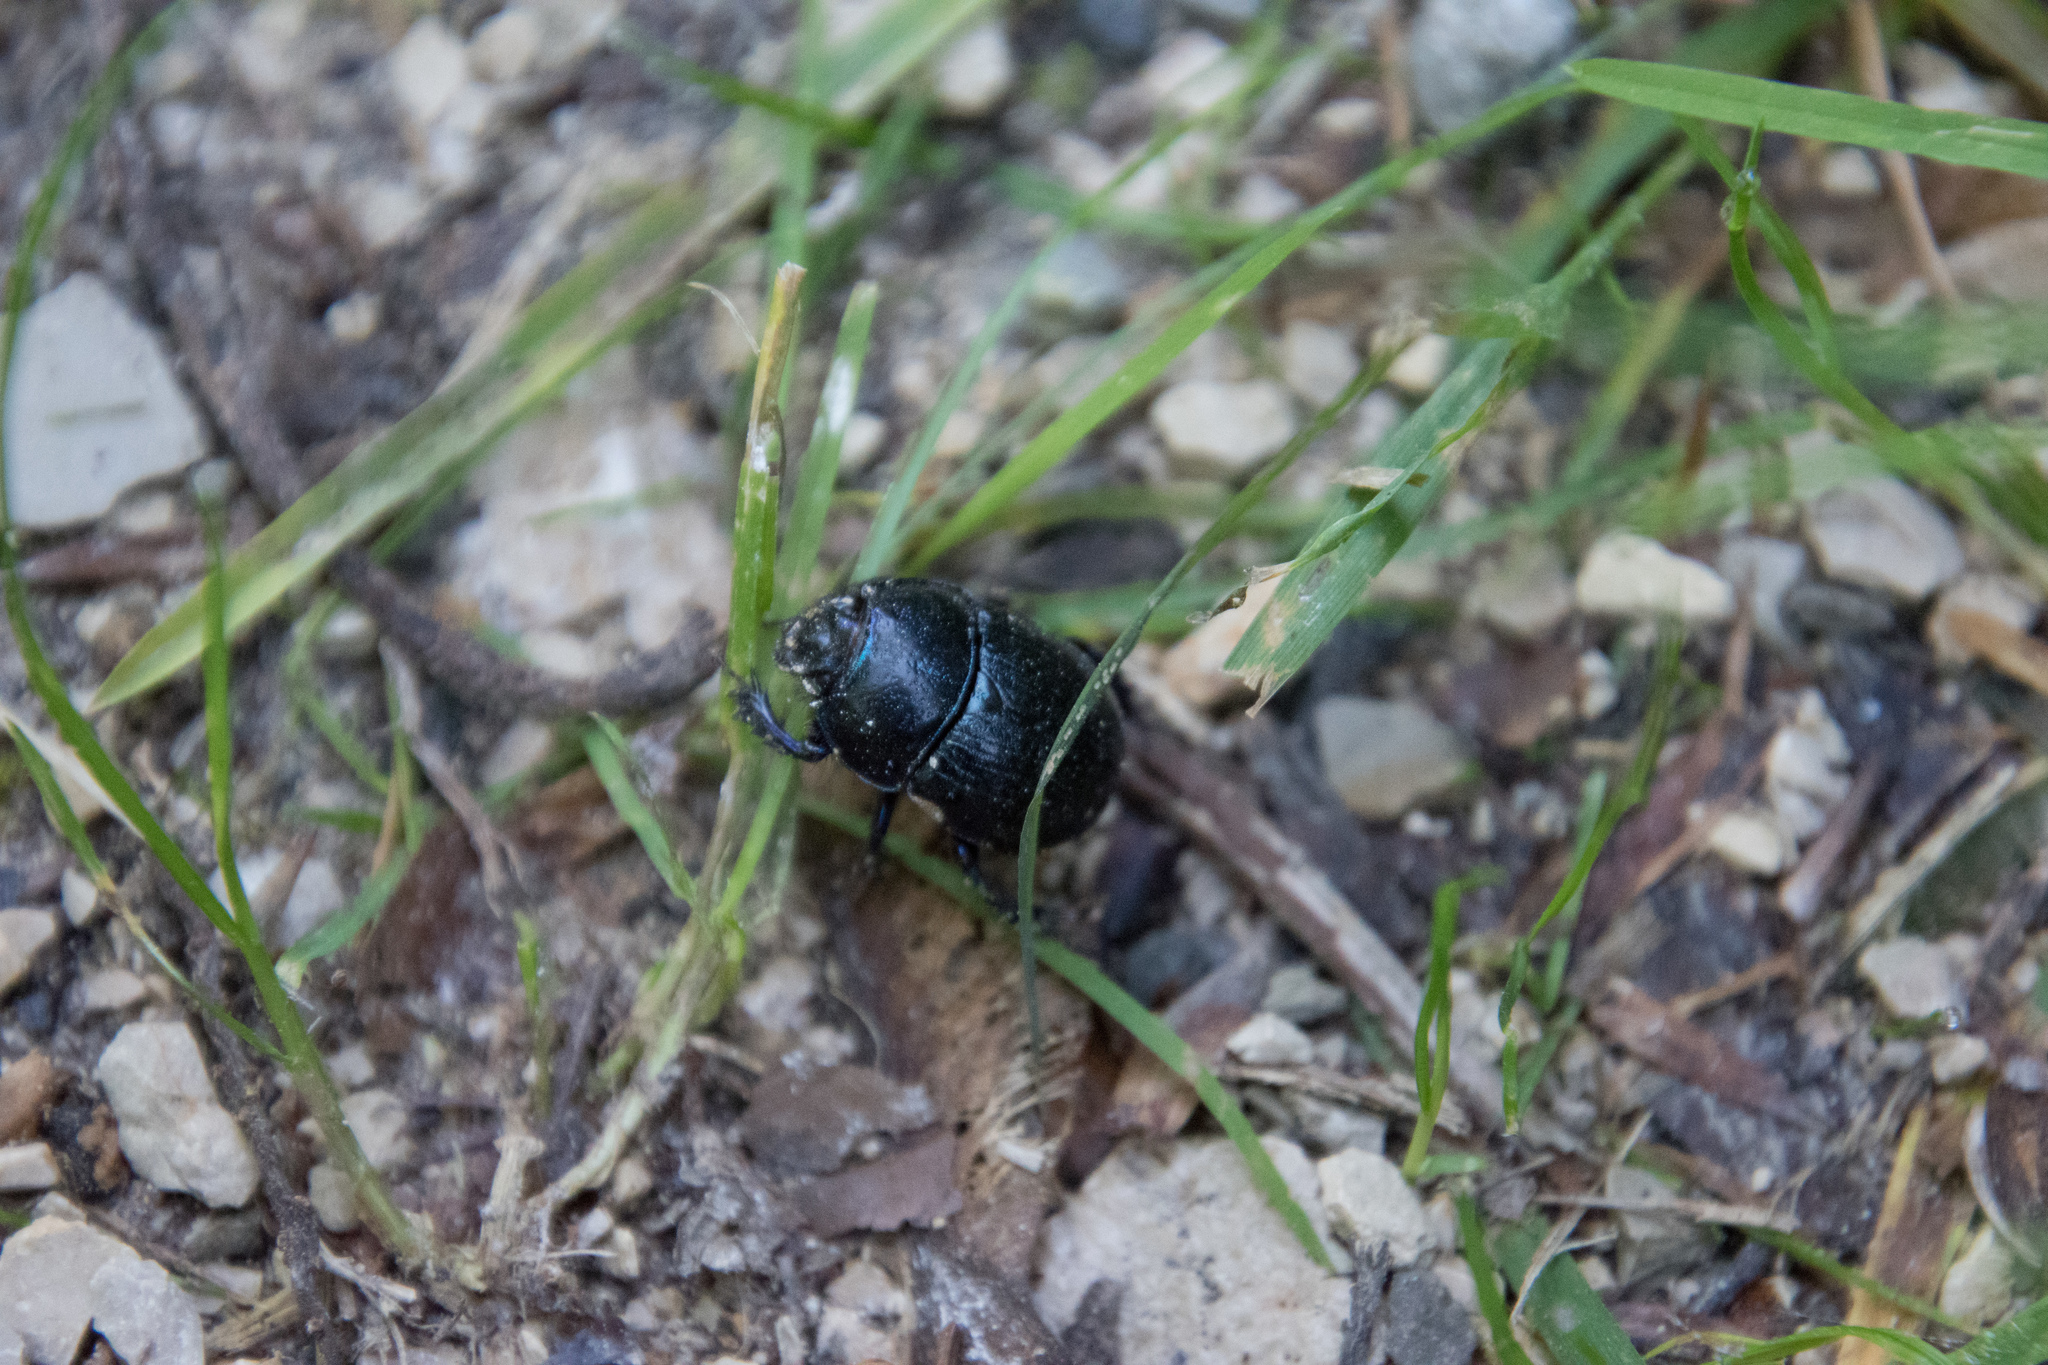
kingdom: Animalia
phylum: Arthropoda
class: Insecta
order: Coleoptera
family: Geotrupidae
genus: Anoplotrupes
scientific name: Anoplotrupes stercorosus
